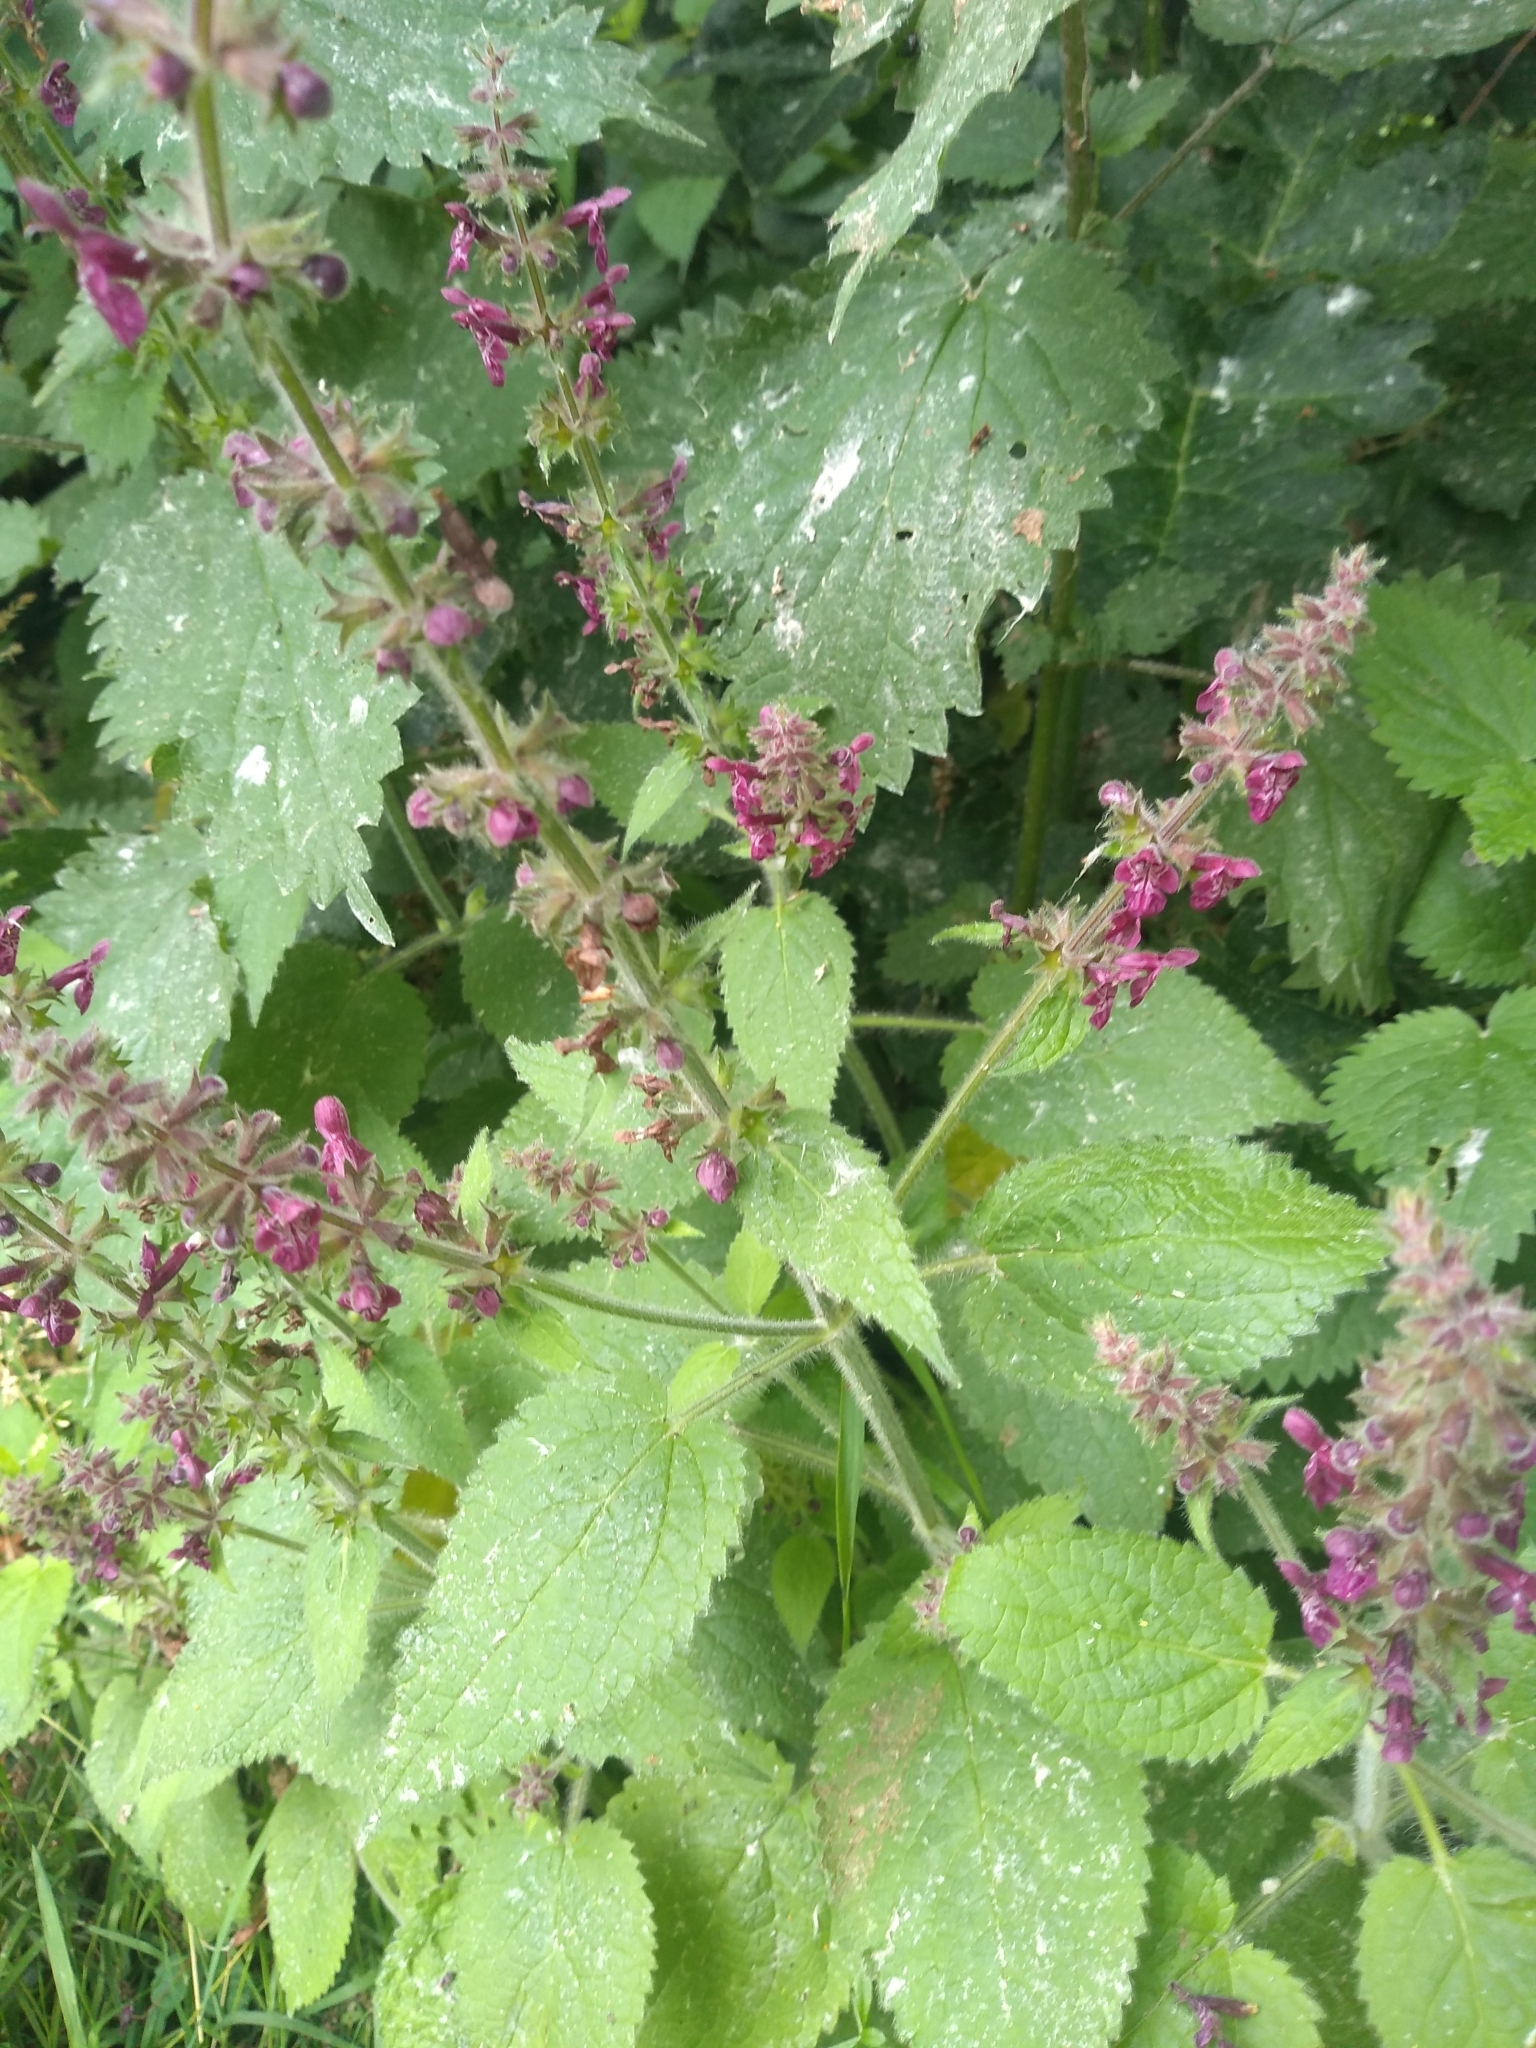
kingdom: Plantae
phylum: Tracheophyta
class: Magnoliopsida
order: Lamiales
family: Lamiaceae
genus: Stachys
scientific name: Stachys sylvatica
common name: Hedge woundwort
